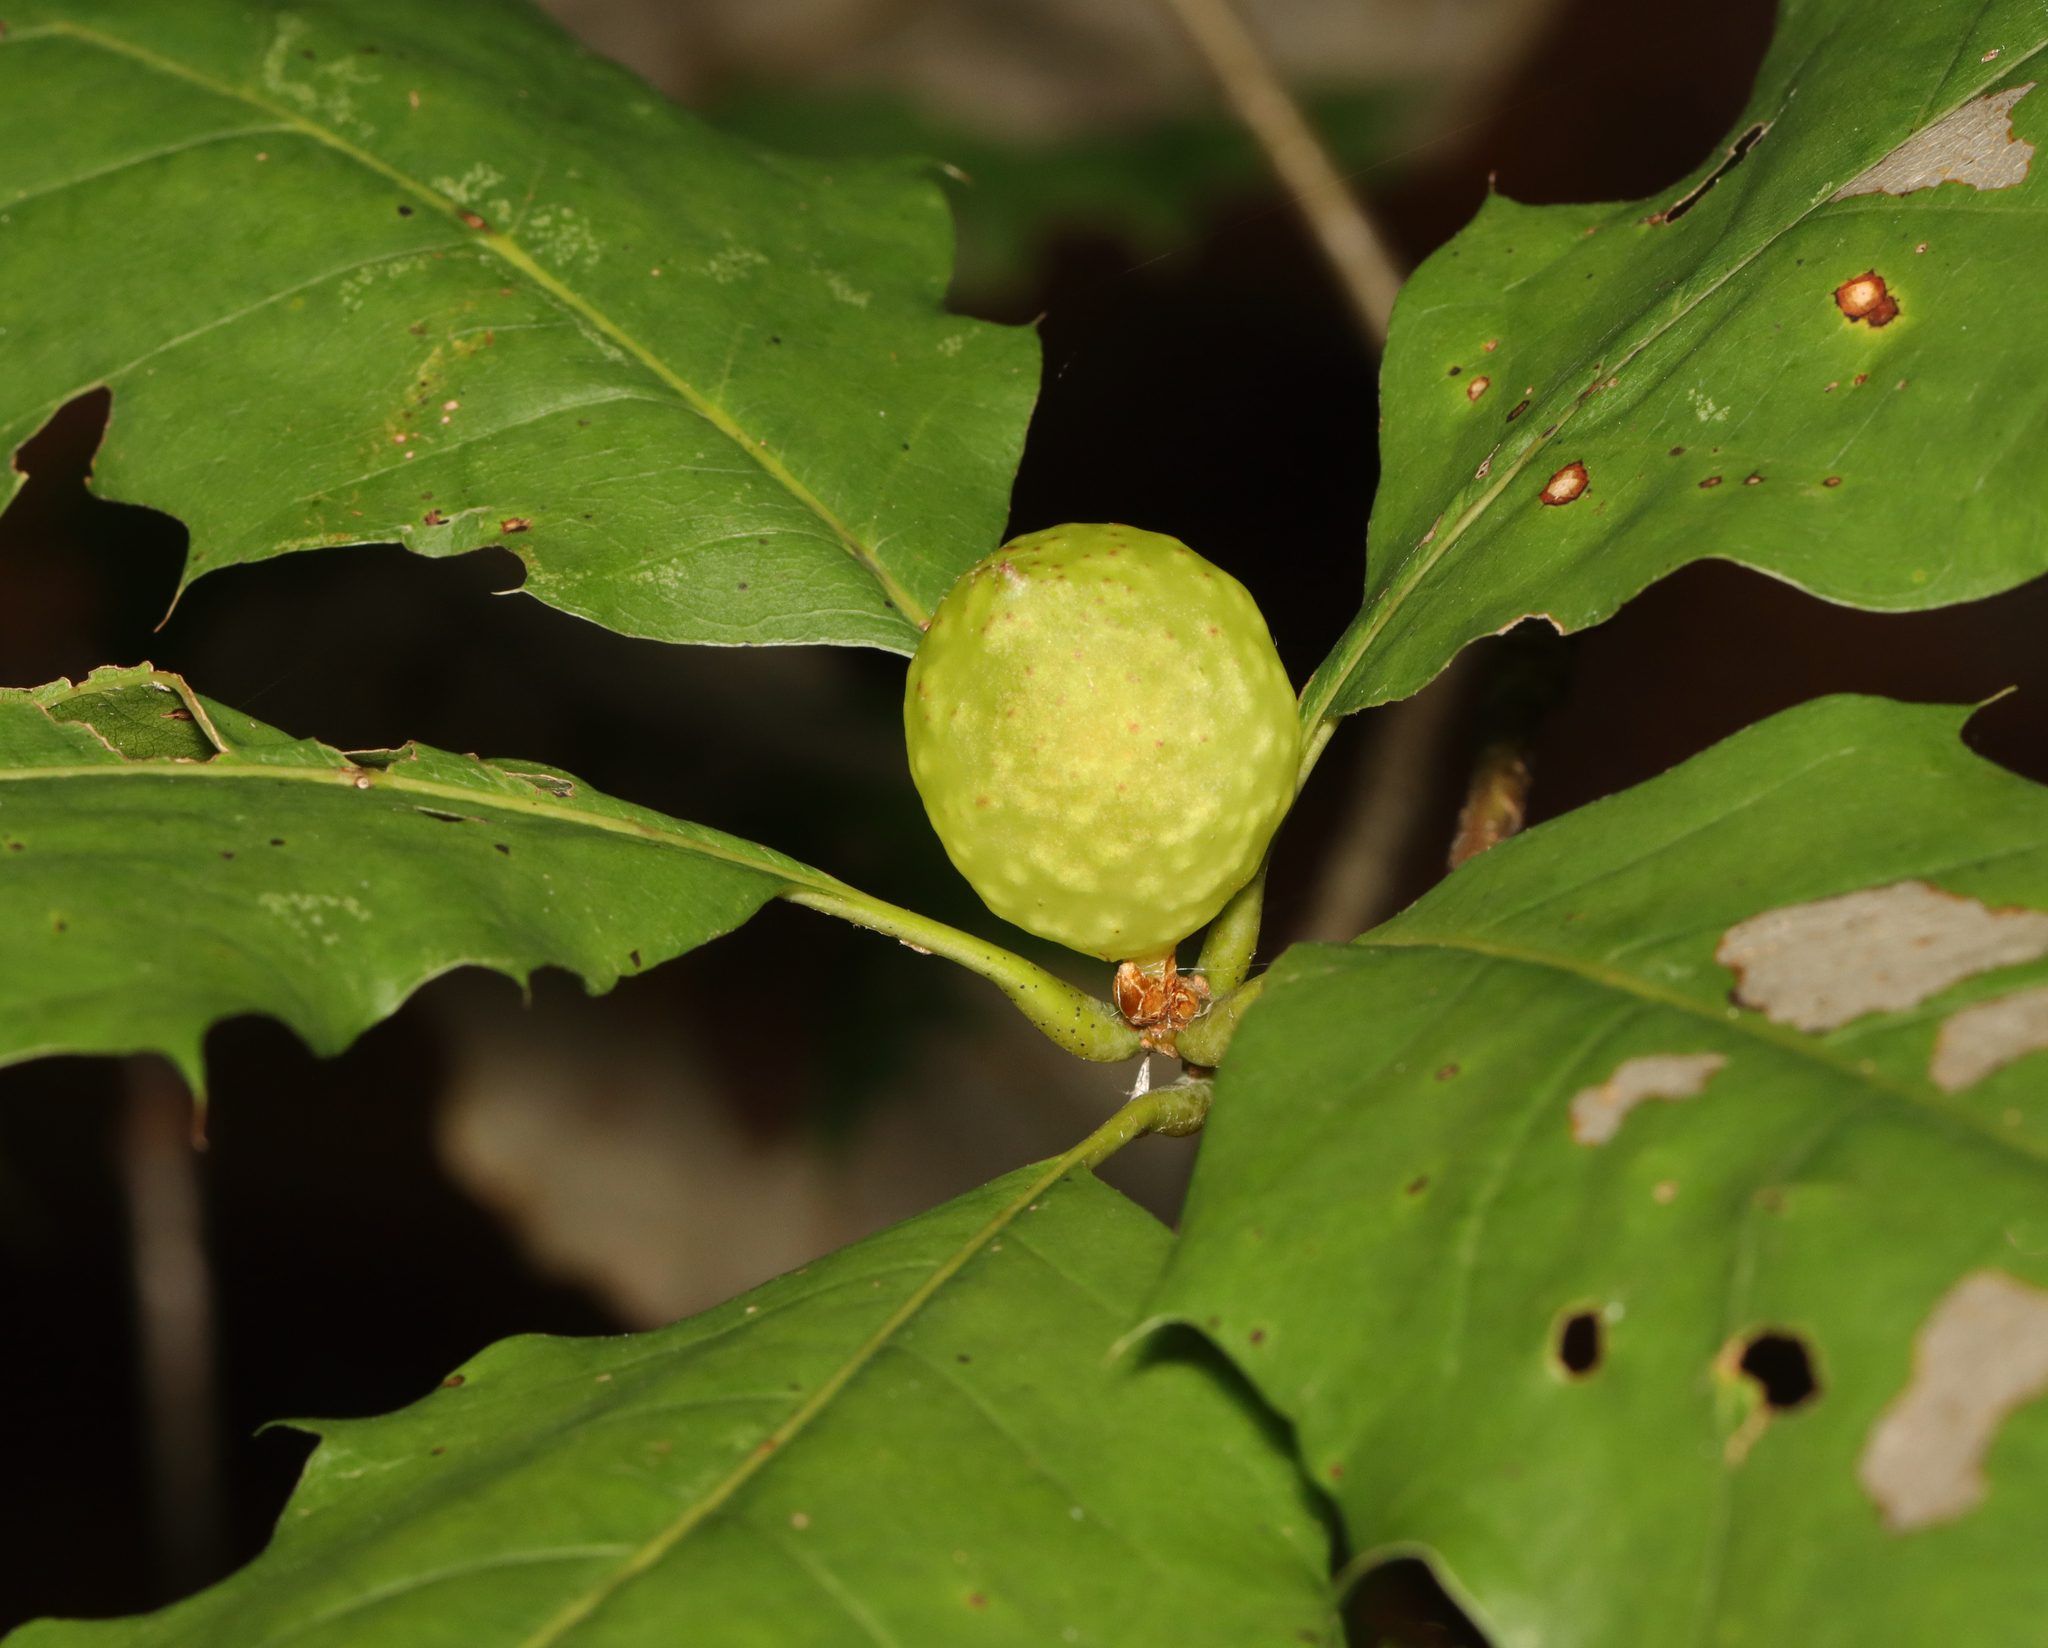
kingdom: Animalia
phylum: Arthropoda
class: Insecta
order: Hymenoptera
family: Cynipidae
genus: Amphibolips
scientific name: Amphibolips
